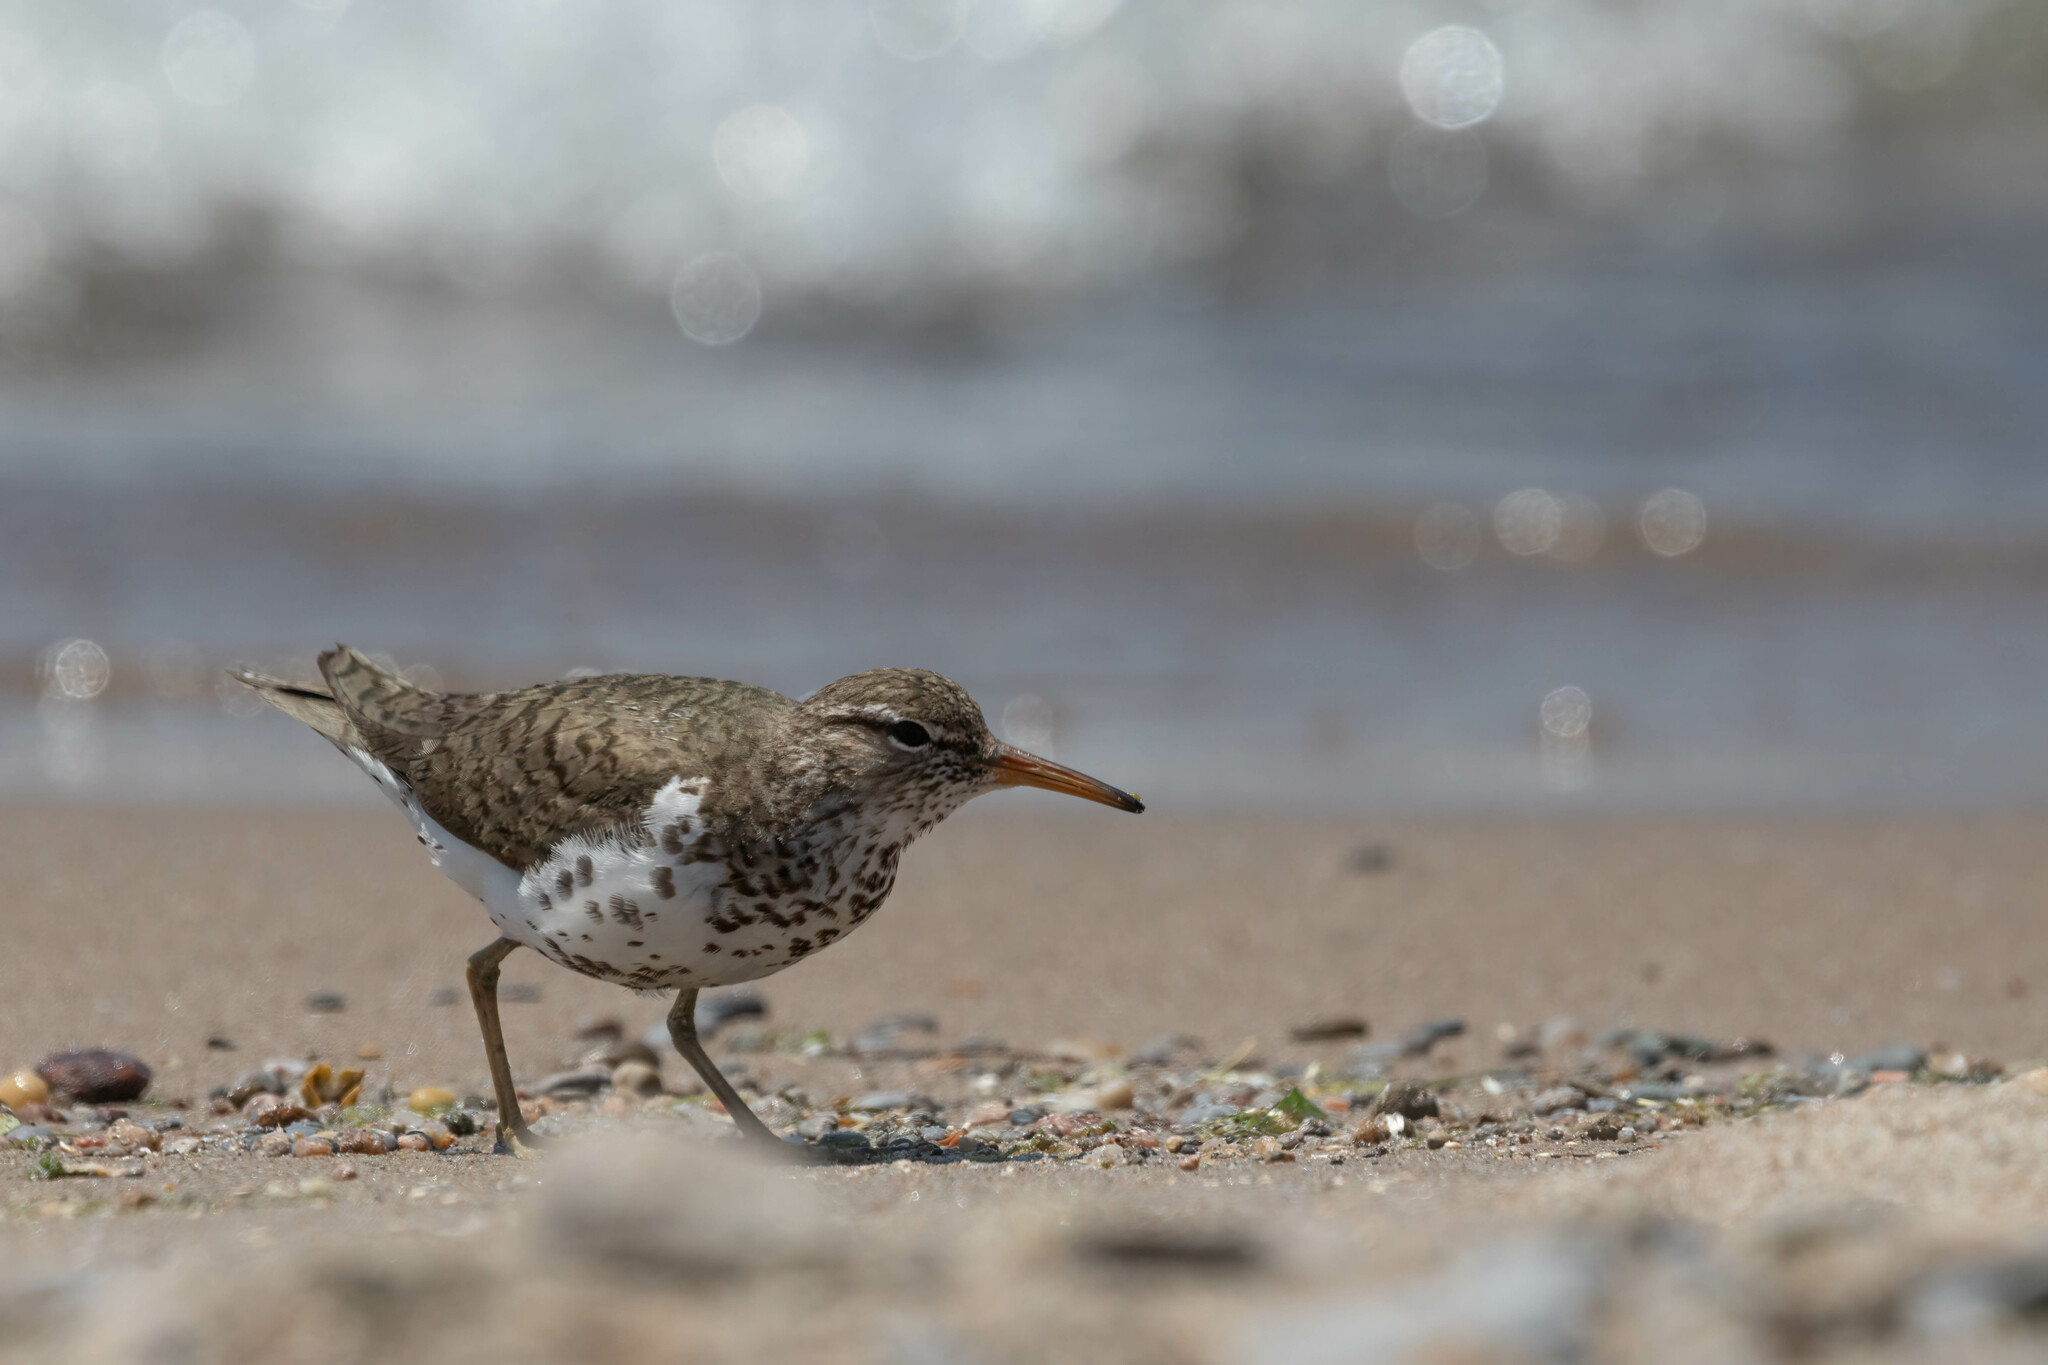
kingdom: Animalia
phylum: Chordata
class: Aves
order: Charadriiformes
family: Scolopacidae
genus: Actitis
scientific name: Actitis macularius
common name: Spotted sandpiper
